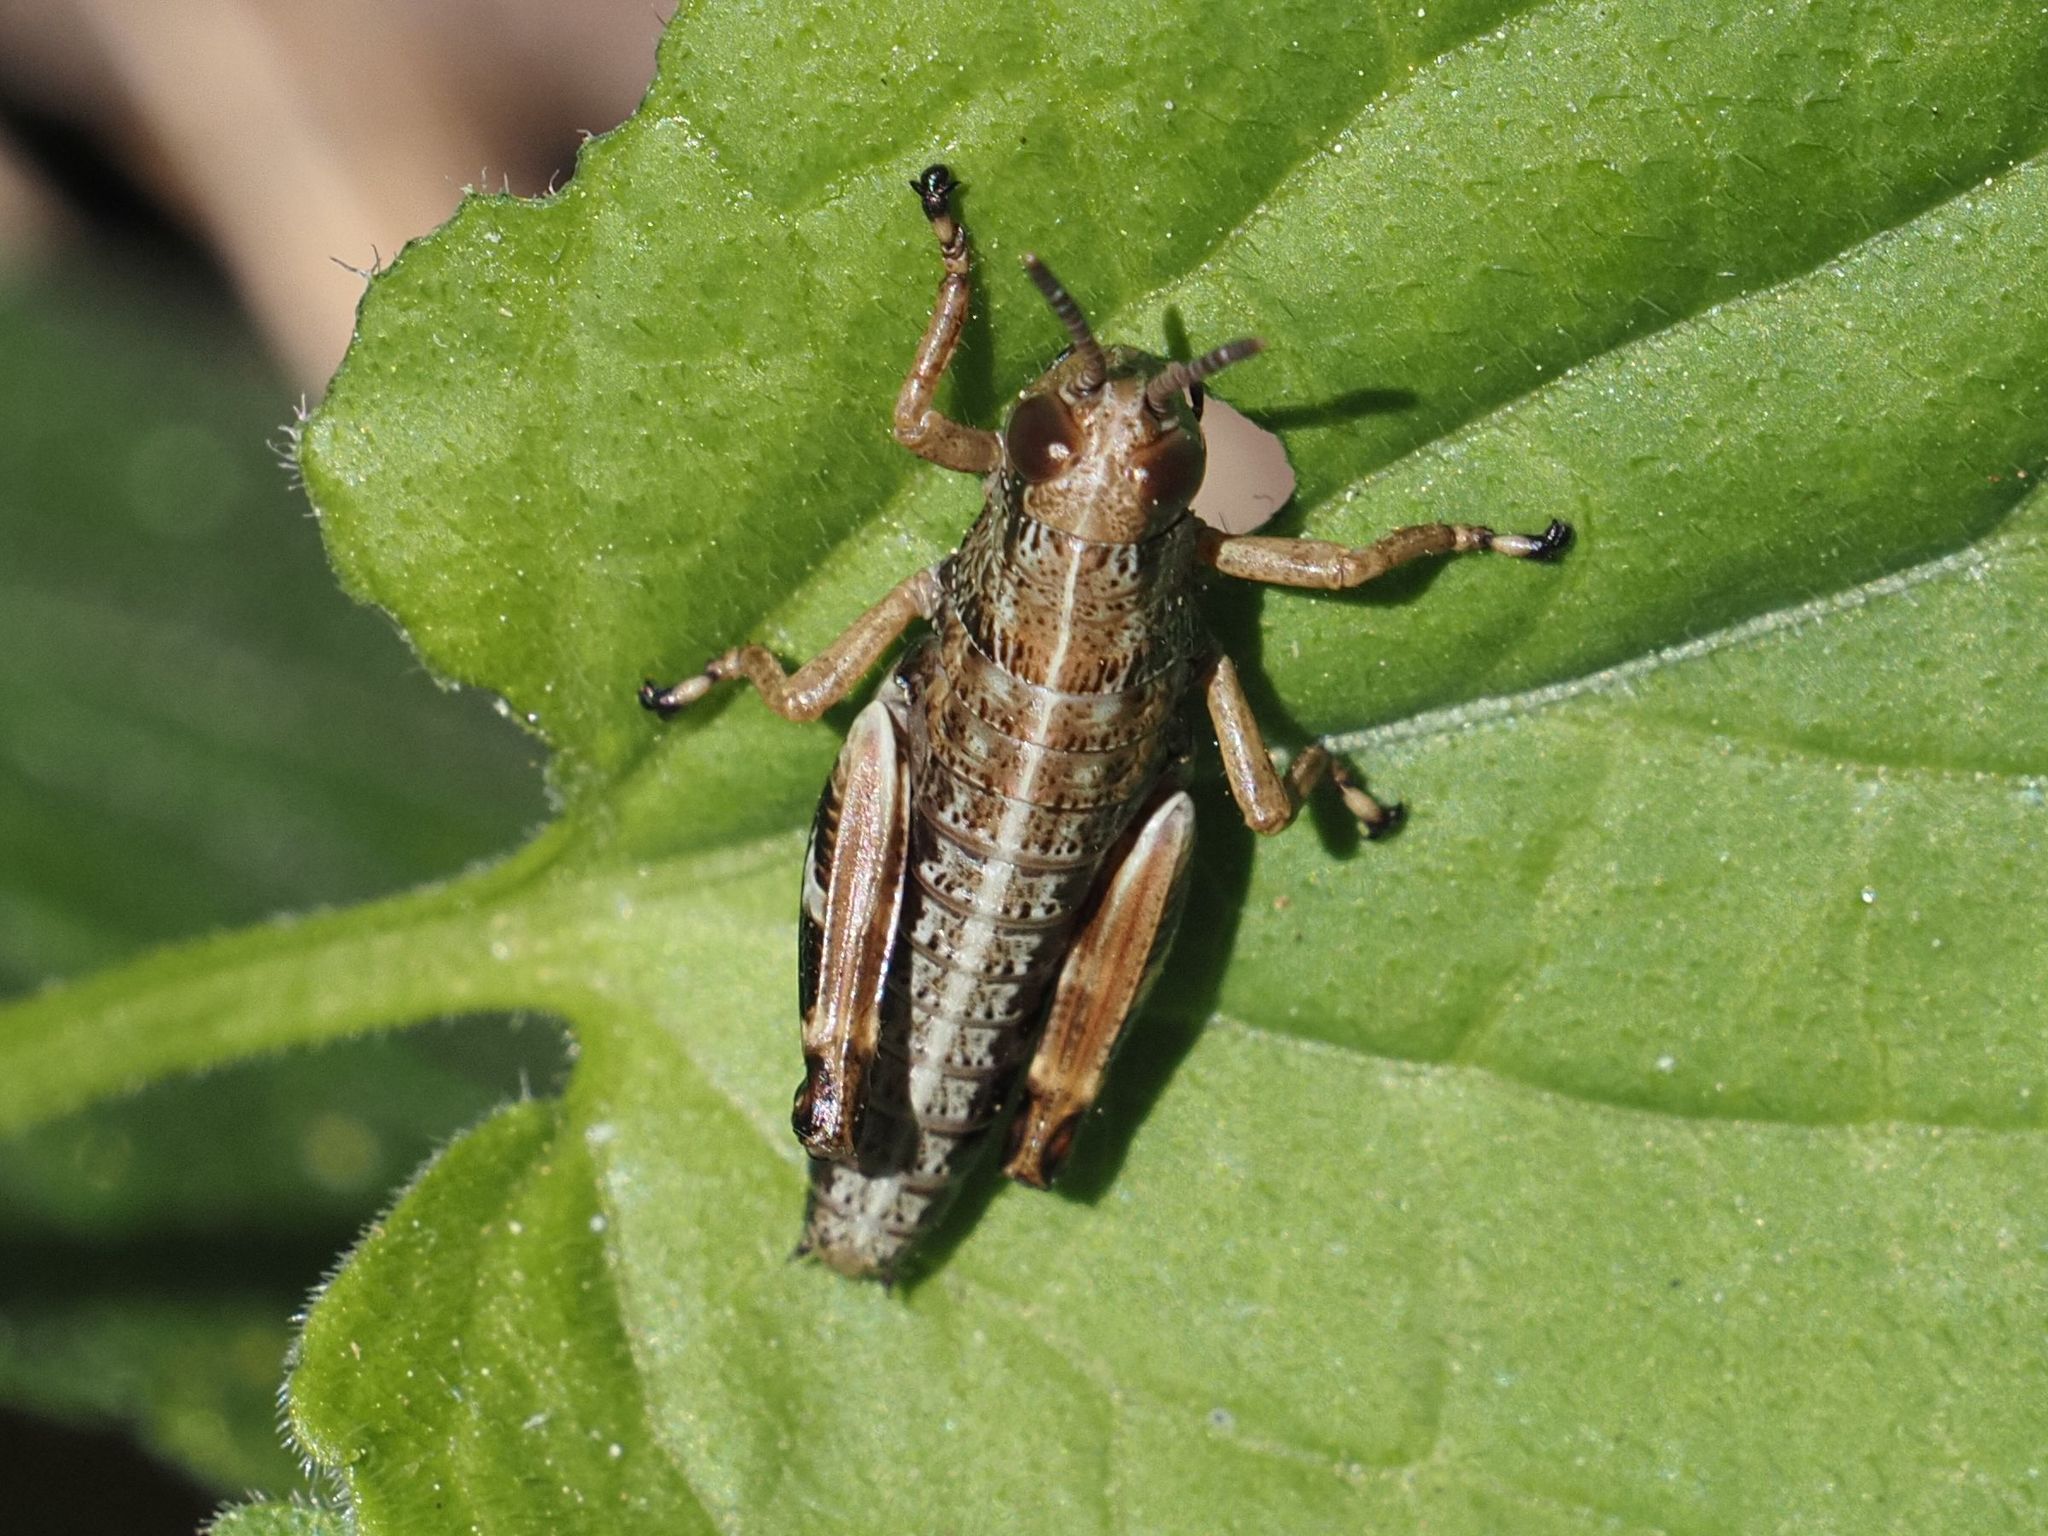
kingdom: Animalia
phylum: Arthropoda
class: Insecta
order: Orthoptera
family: Acrididae
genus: Miramella
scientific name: Miramella alpina
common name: Green mountain grasshopper
